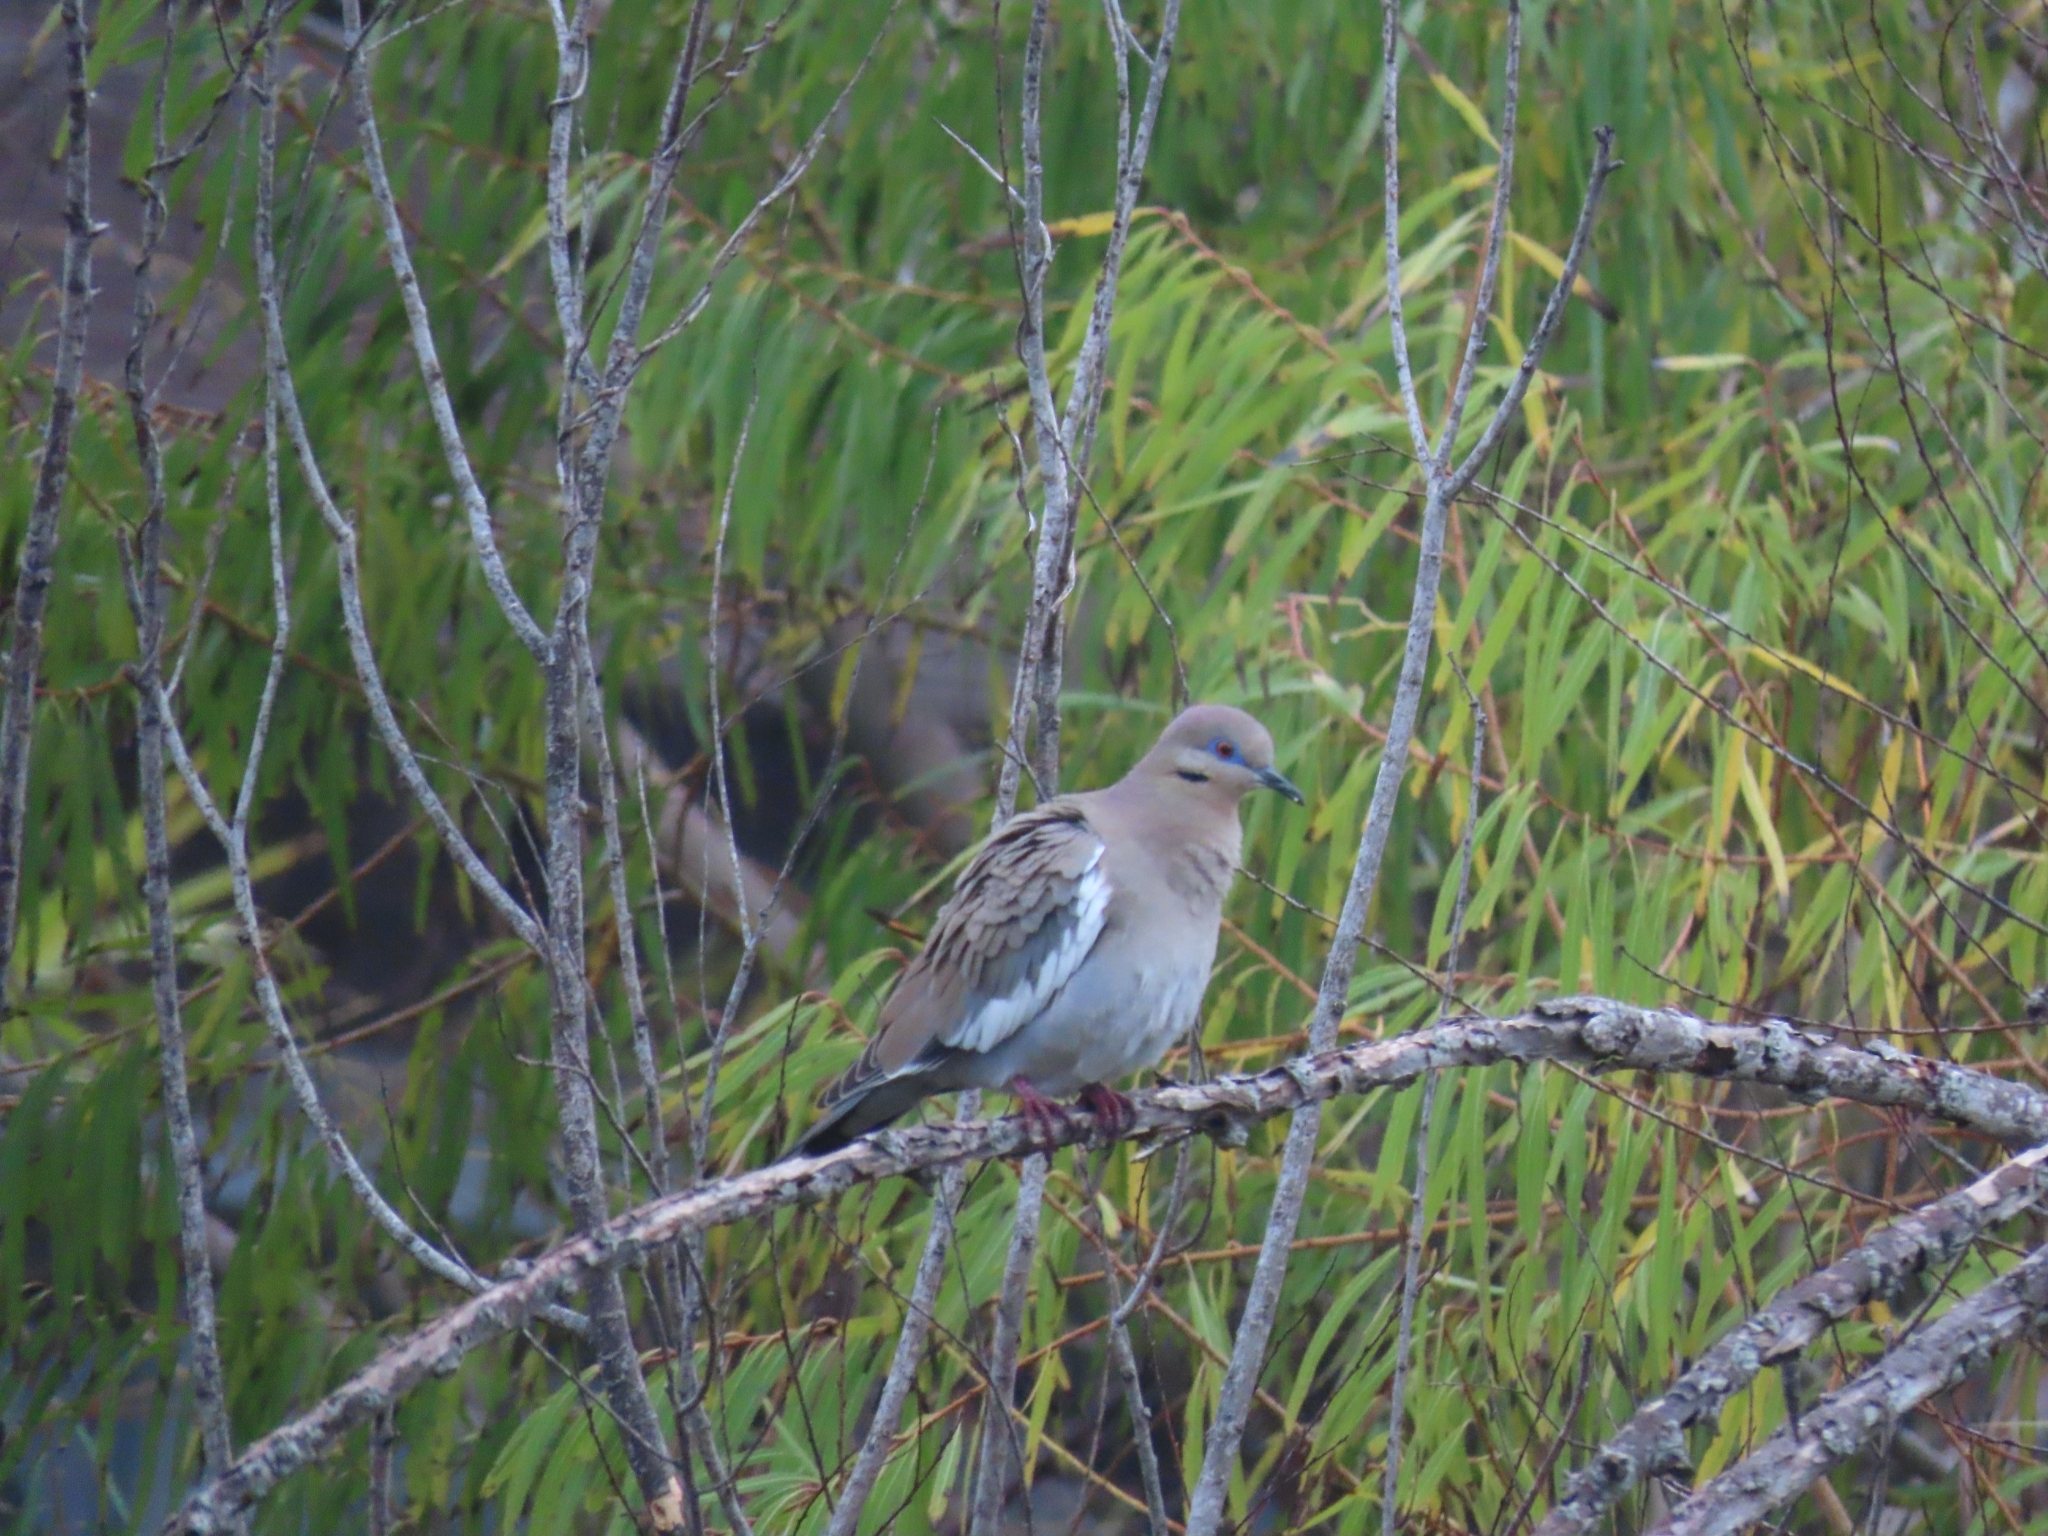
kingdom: Animalia
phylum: Chordata
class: Aves
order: Columbiformes
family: Columbidae
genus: Zenaida
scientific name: Zenaida asiatica
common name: White-winged dove
